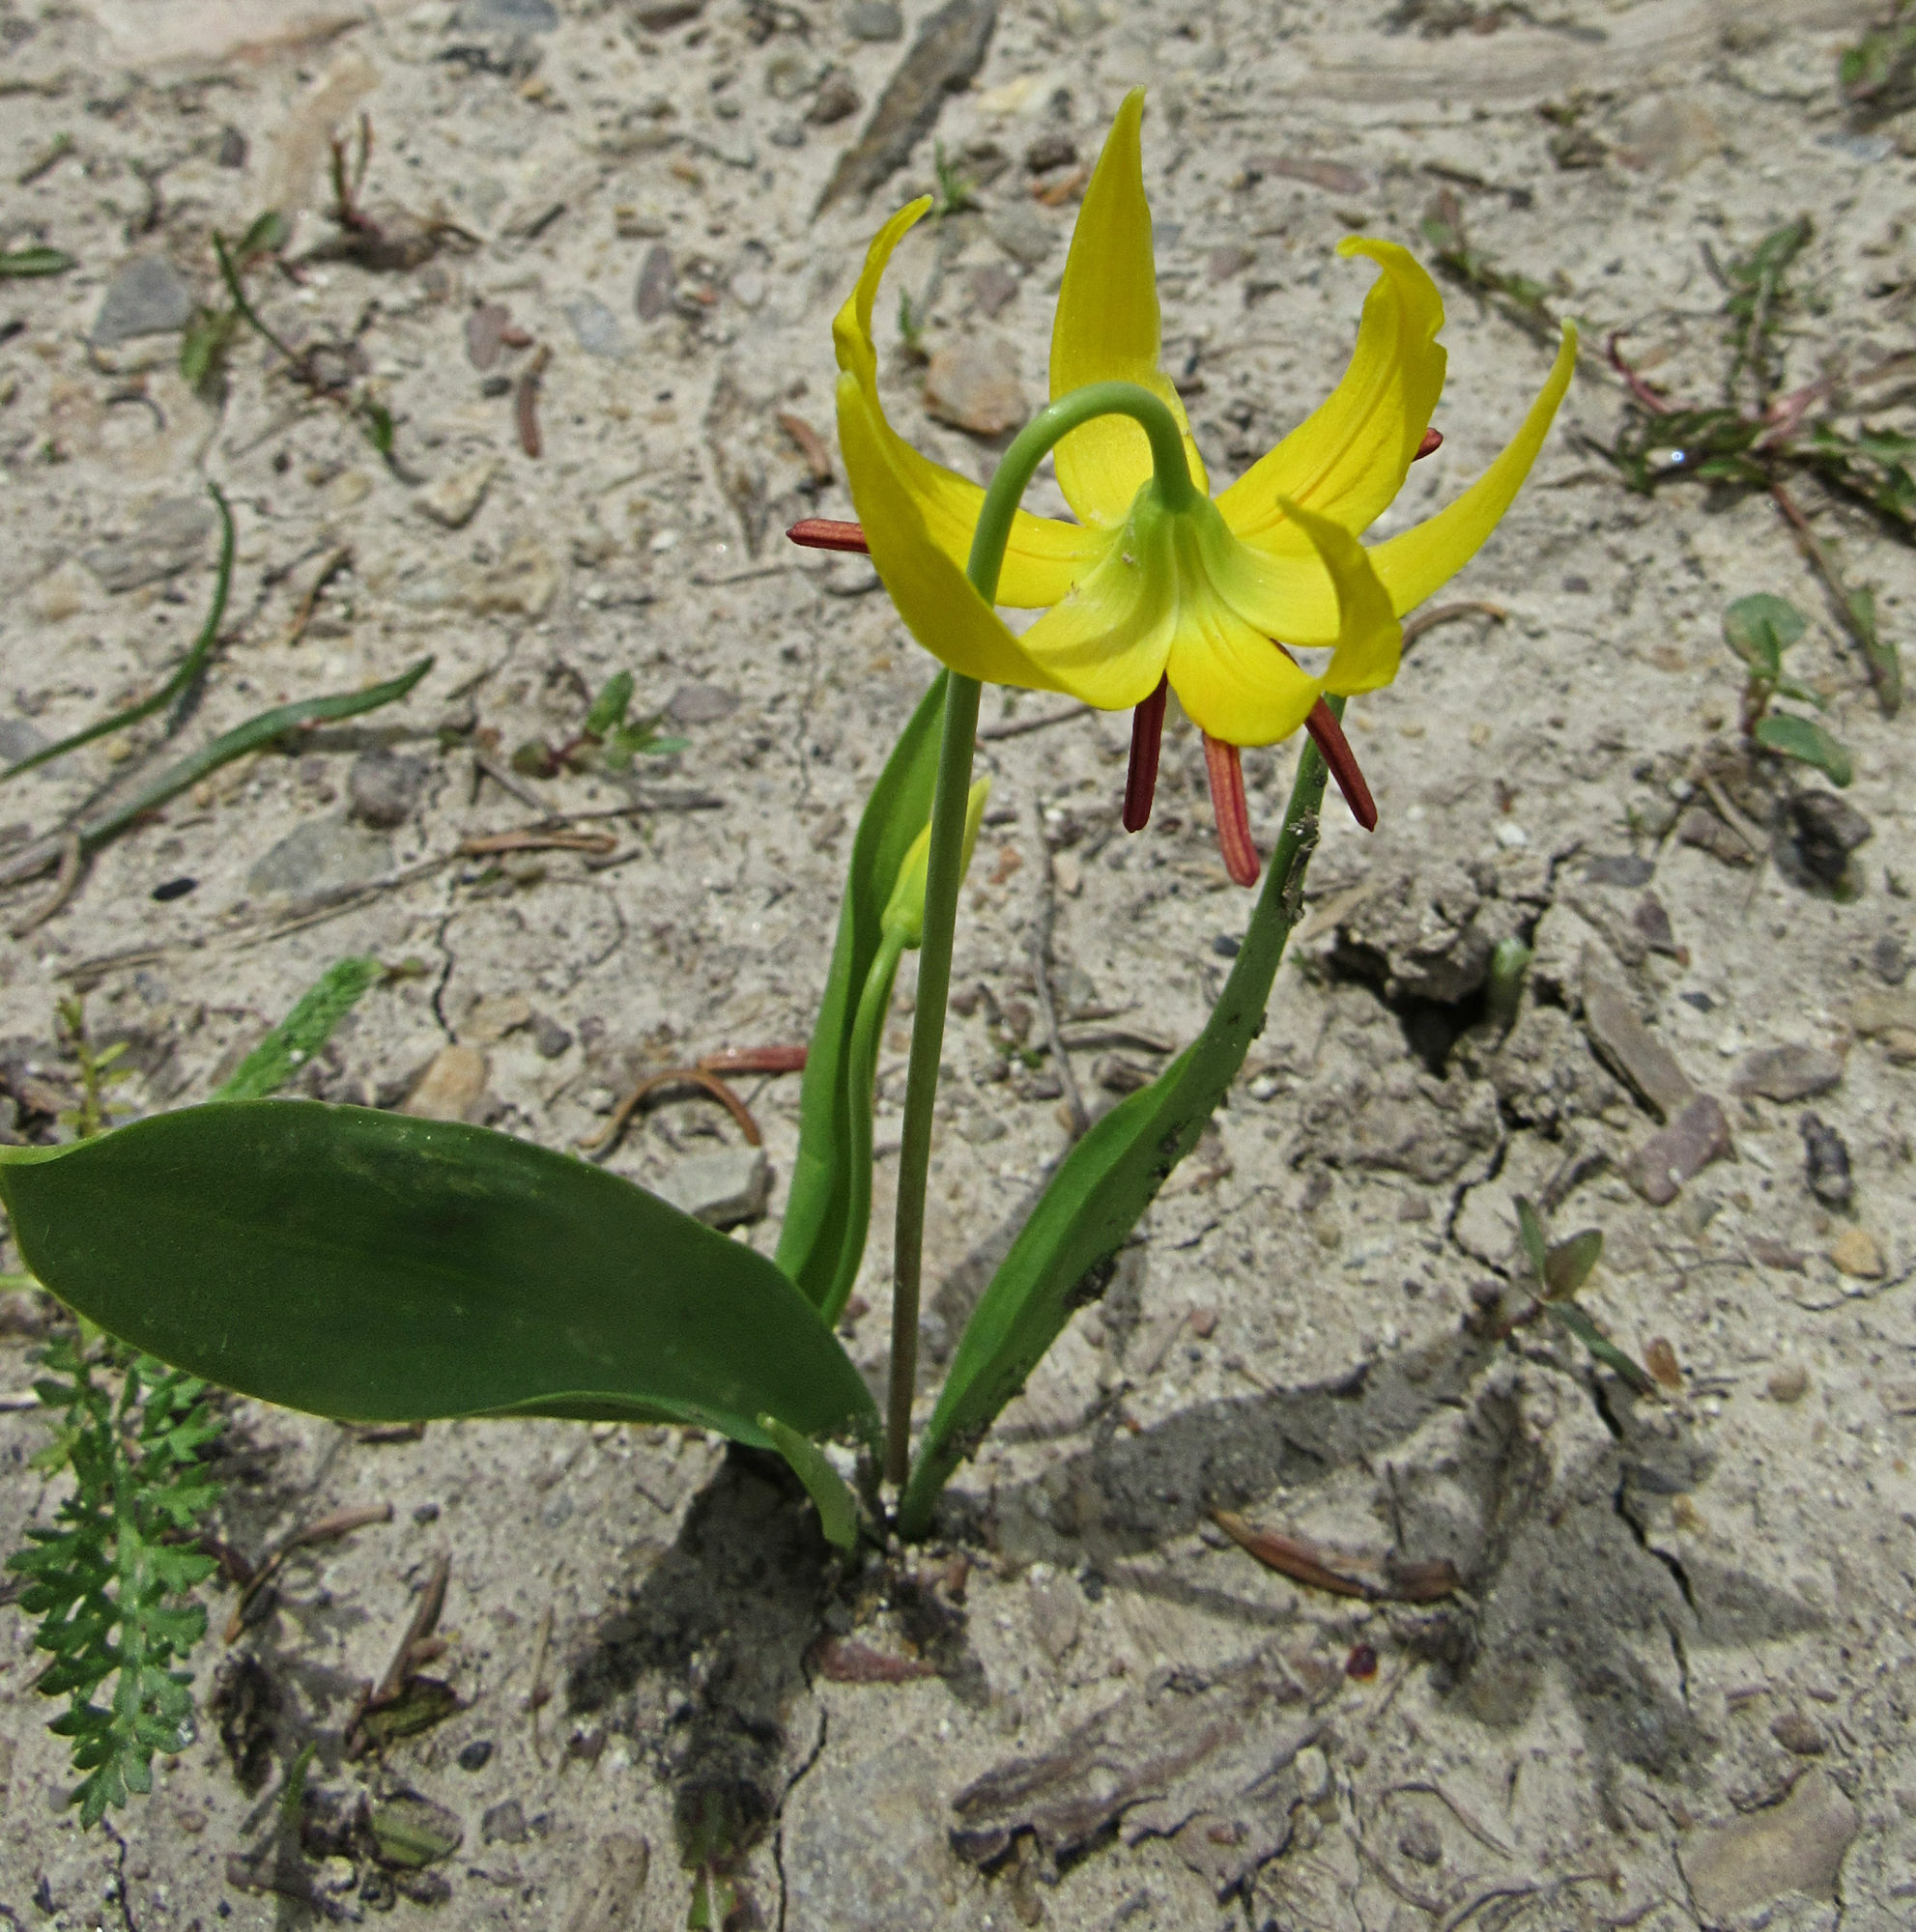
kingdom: Plantae
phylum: Tracheophyta
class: Liliopsida
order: Liliales
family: Liliaceae
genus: Erythronium
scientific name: Erythronium grandiflorum
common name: Avalanche-lily
